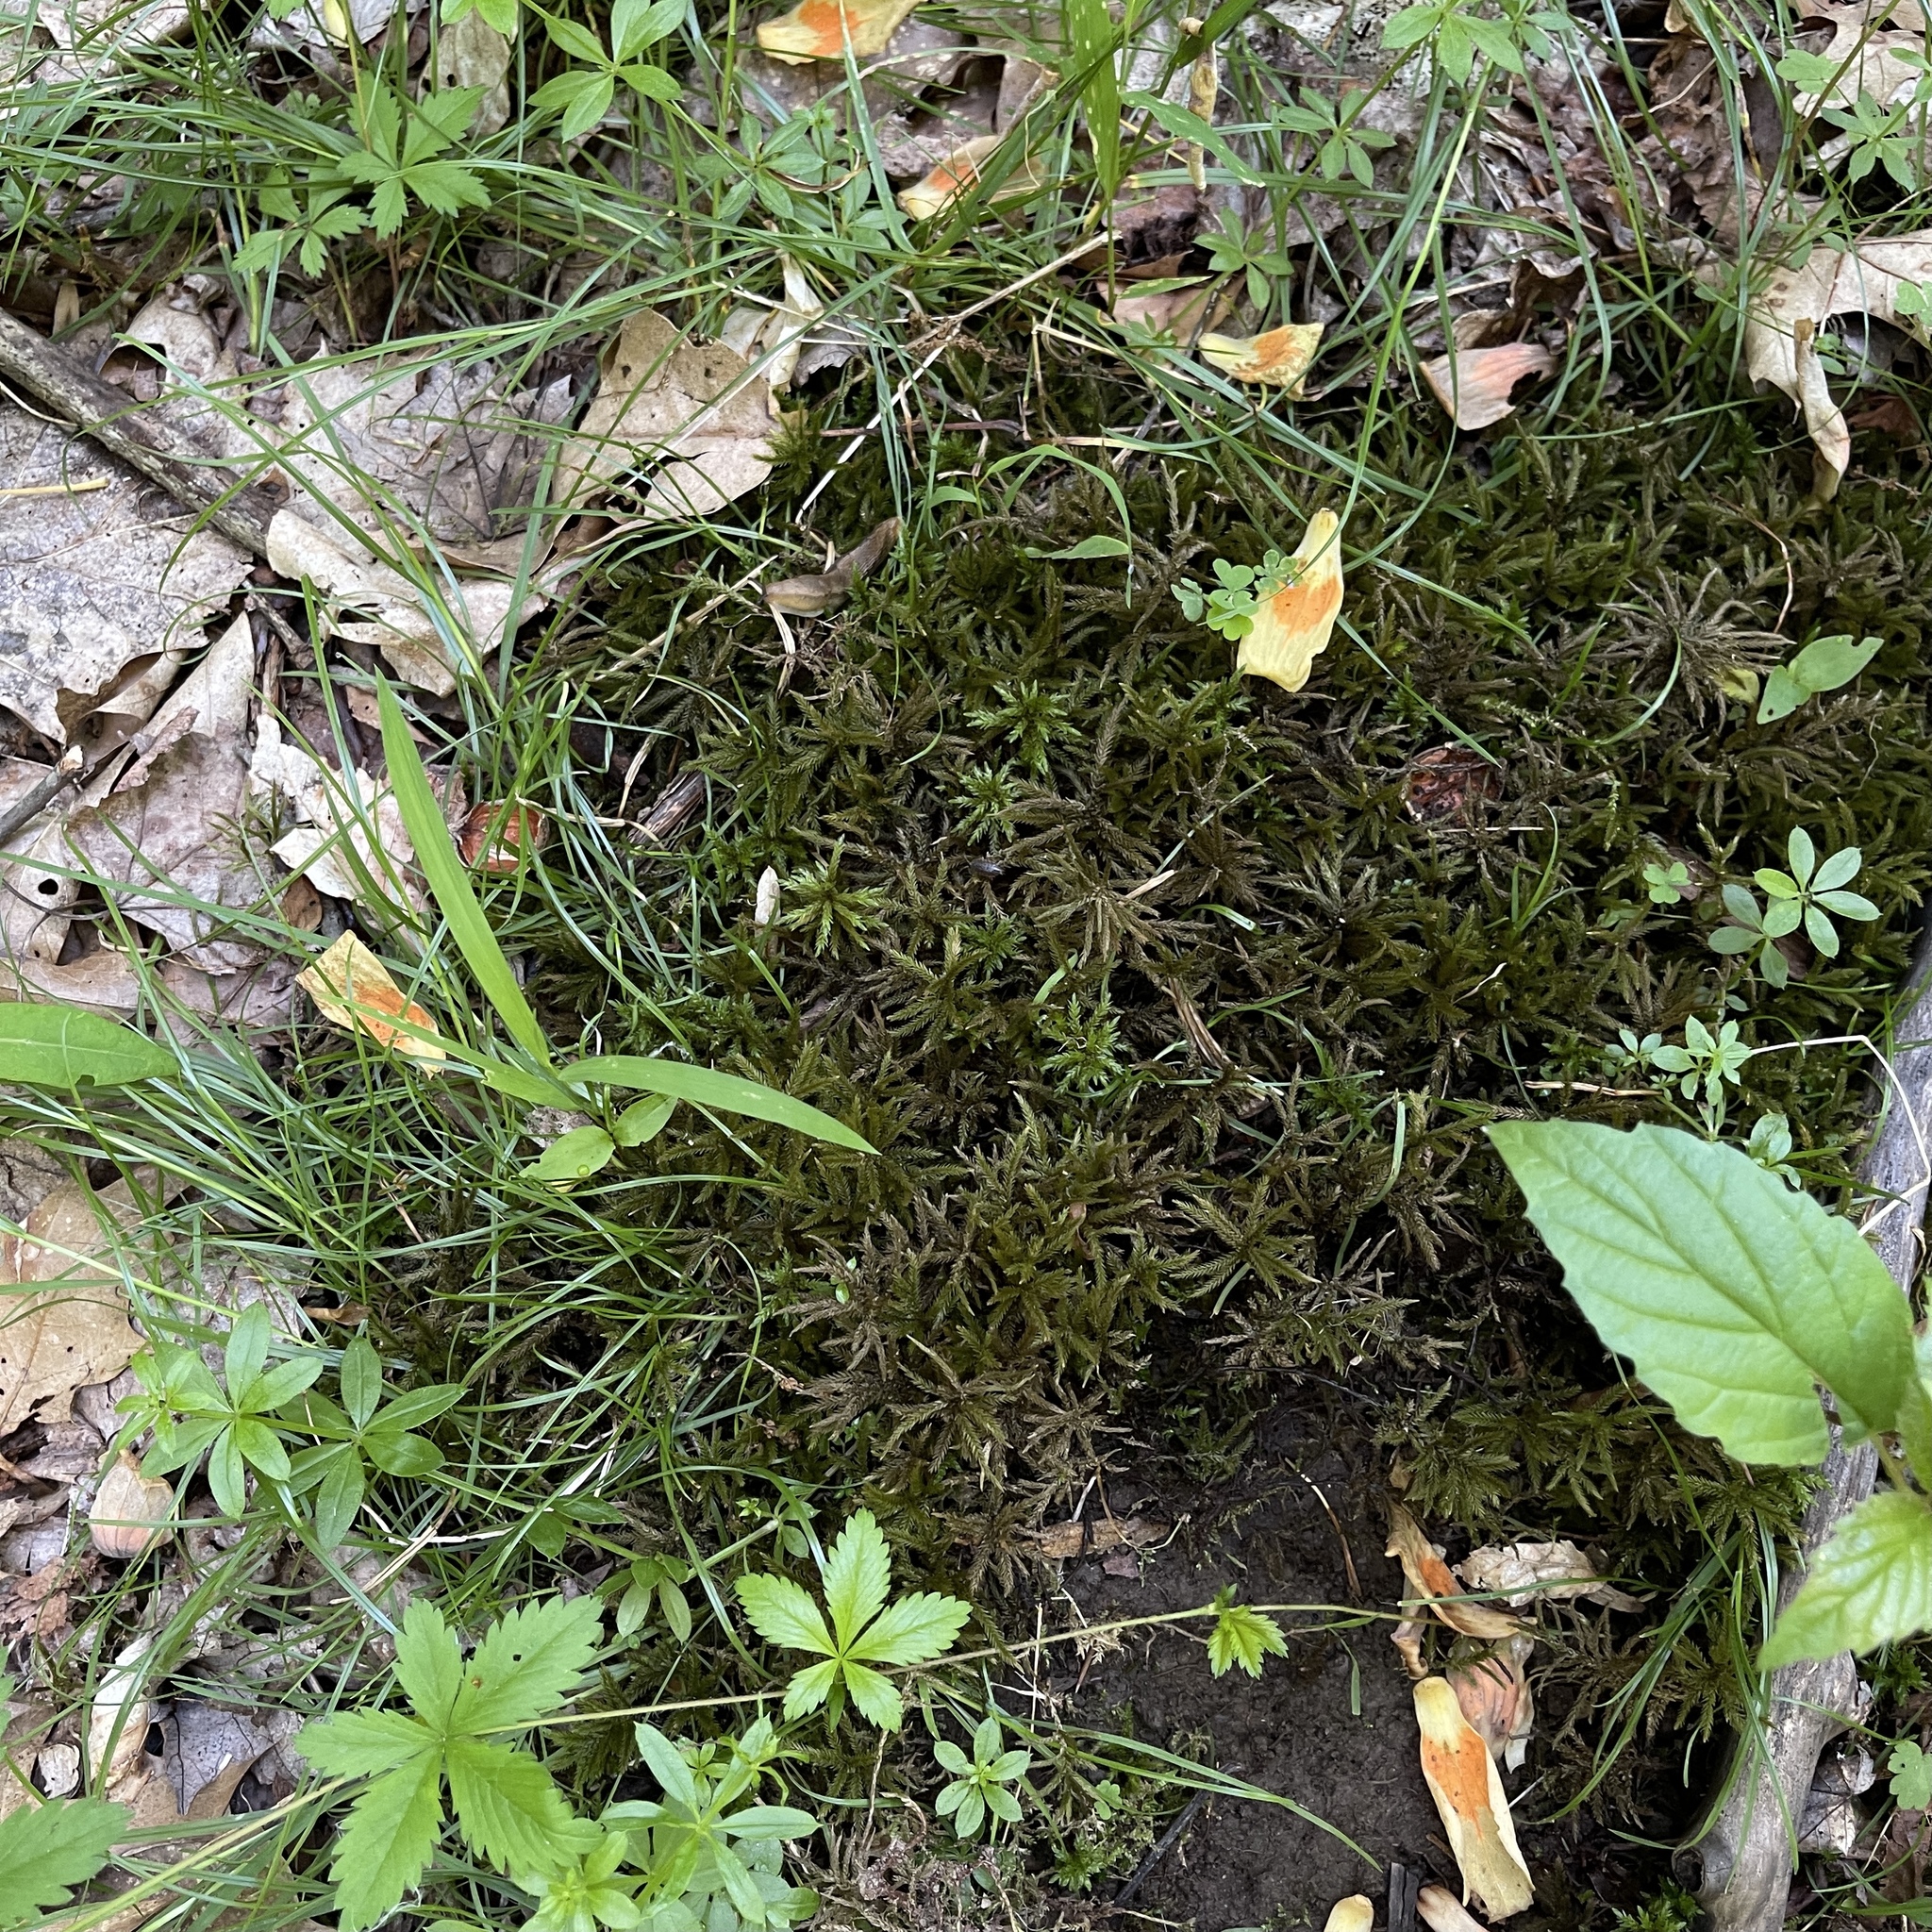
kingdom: Plantae
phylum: Bryophyta
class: Bryopsida
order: Hypnales
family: Climaciaceae
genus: Climacium
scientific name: Climacium americanum
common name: American tree moss
